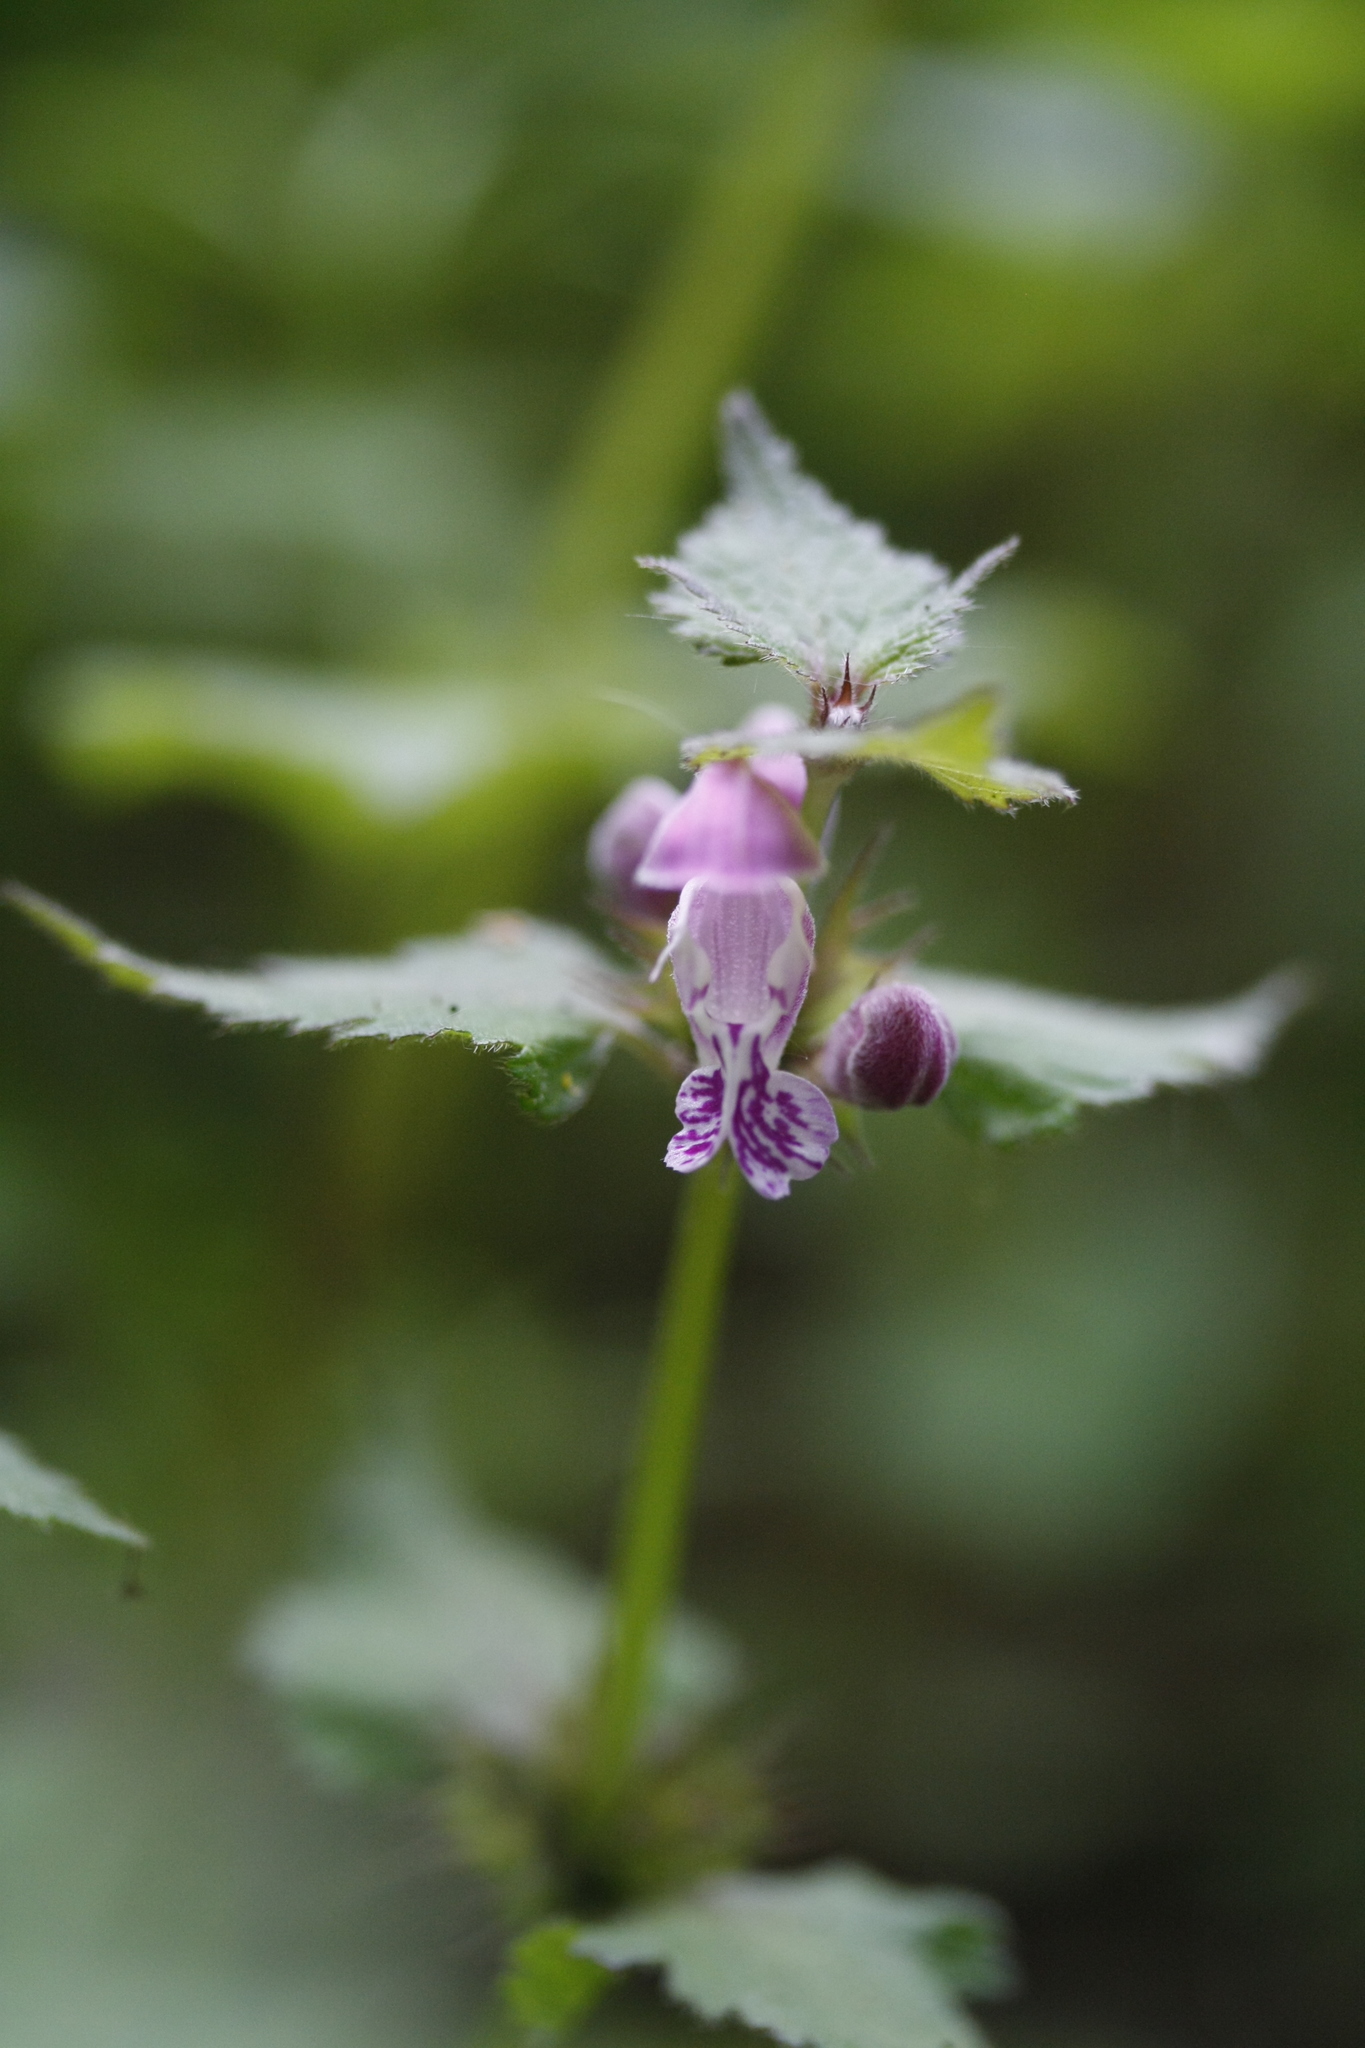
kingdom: Plantae
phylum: Tracheophyta
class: Magnoliopsida
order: Lamiales
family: Lamiaceae
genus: Lamium
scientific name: Lamium maculatum
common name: Spotted dead-nettle
